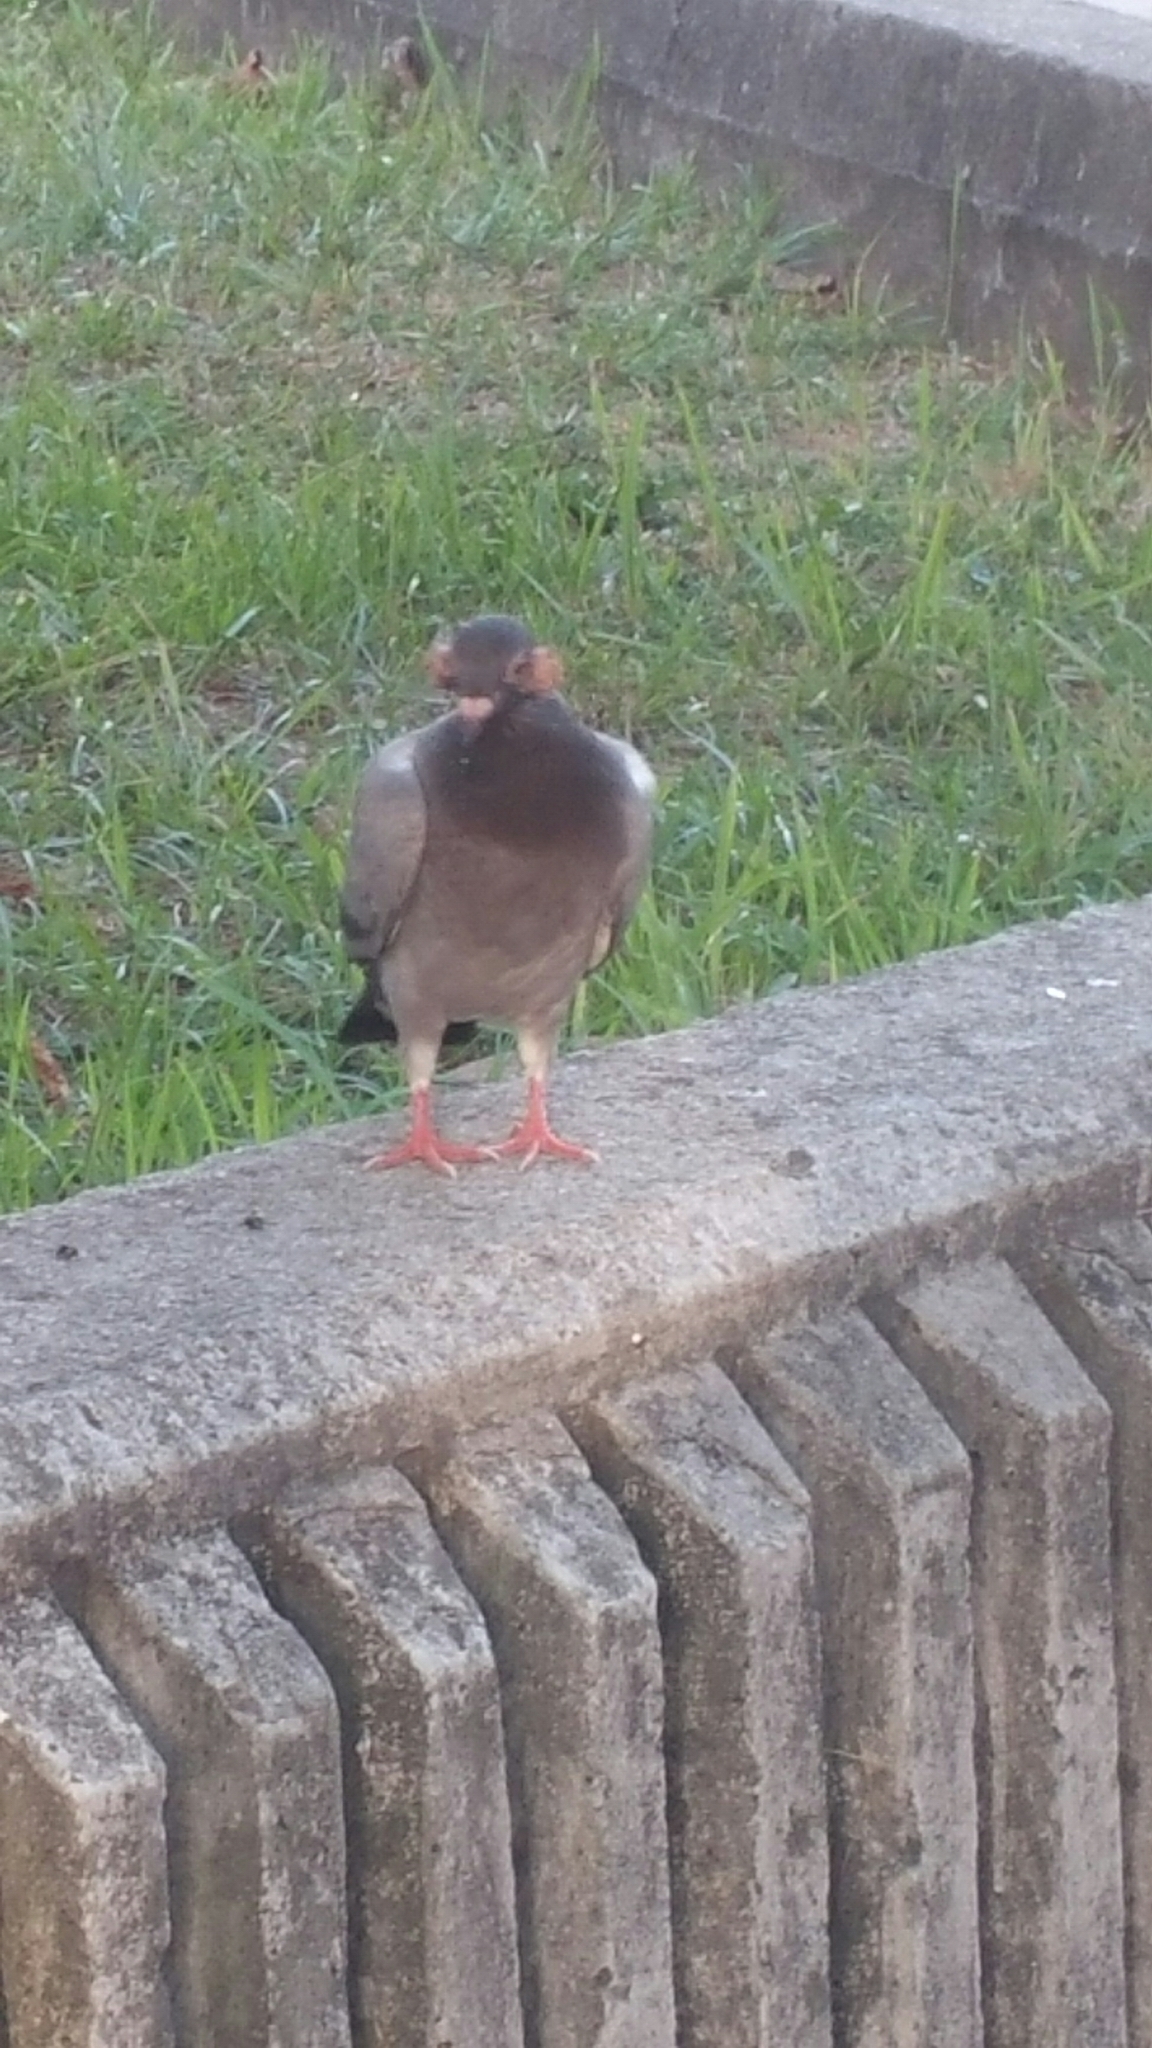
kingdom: Animalia
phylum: Chordata
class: Aves
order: Columbiformes
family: Columbidae
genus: Columba
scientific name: Columba livia
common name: Rock pigeon
